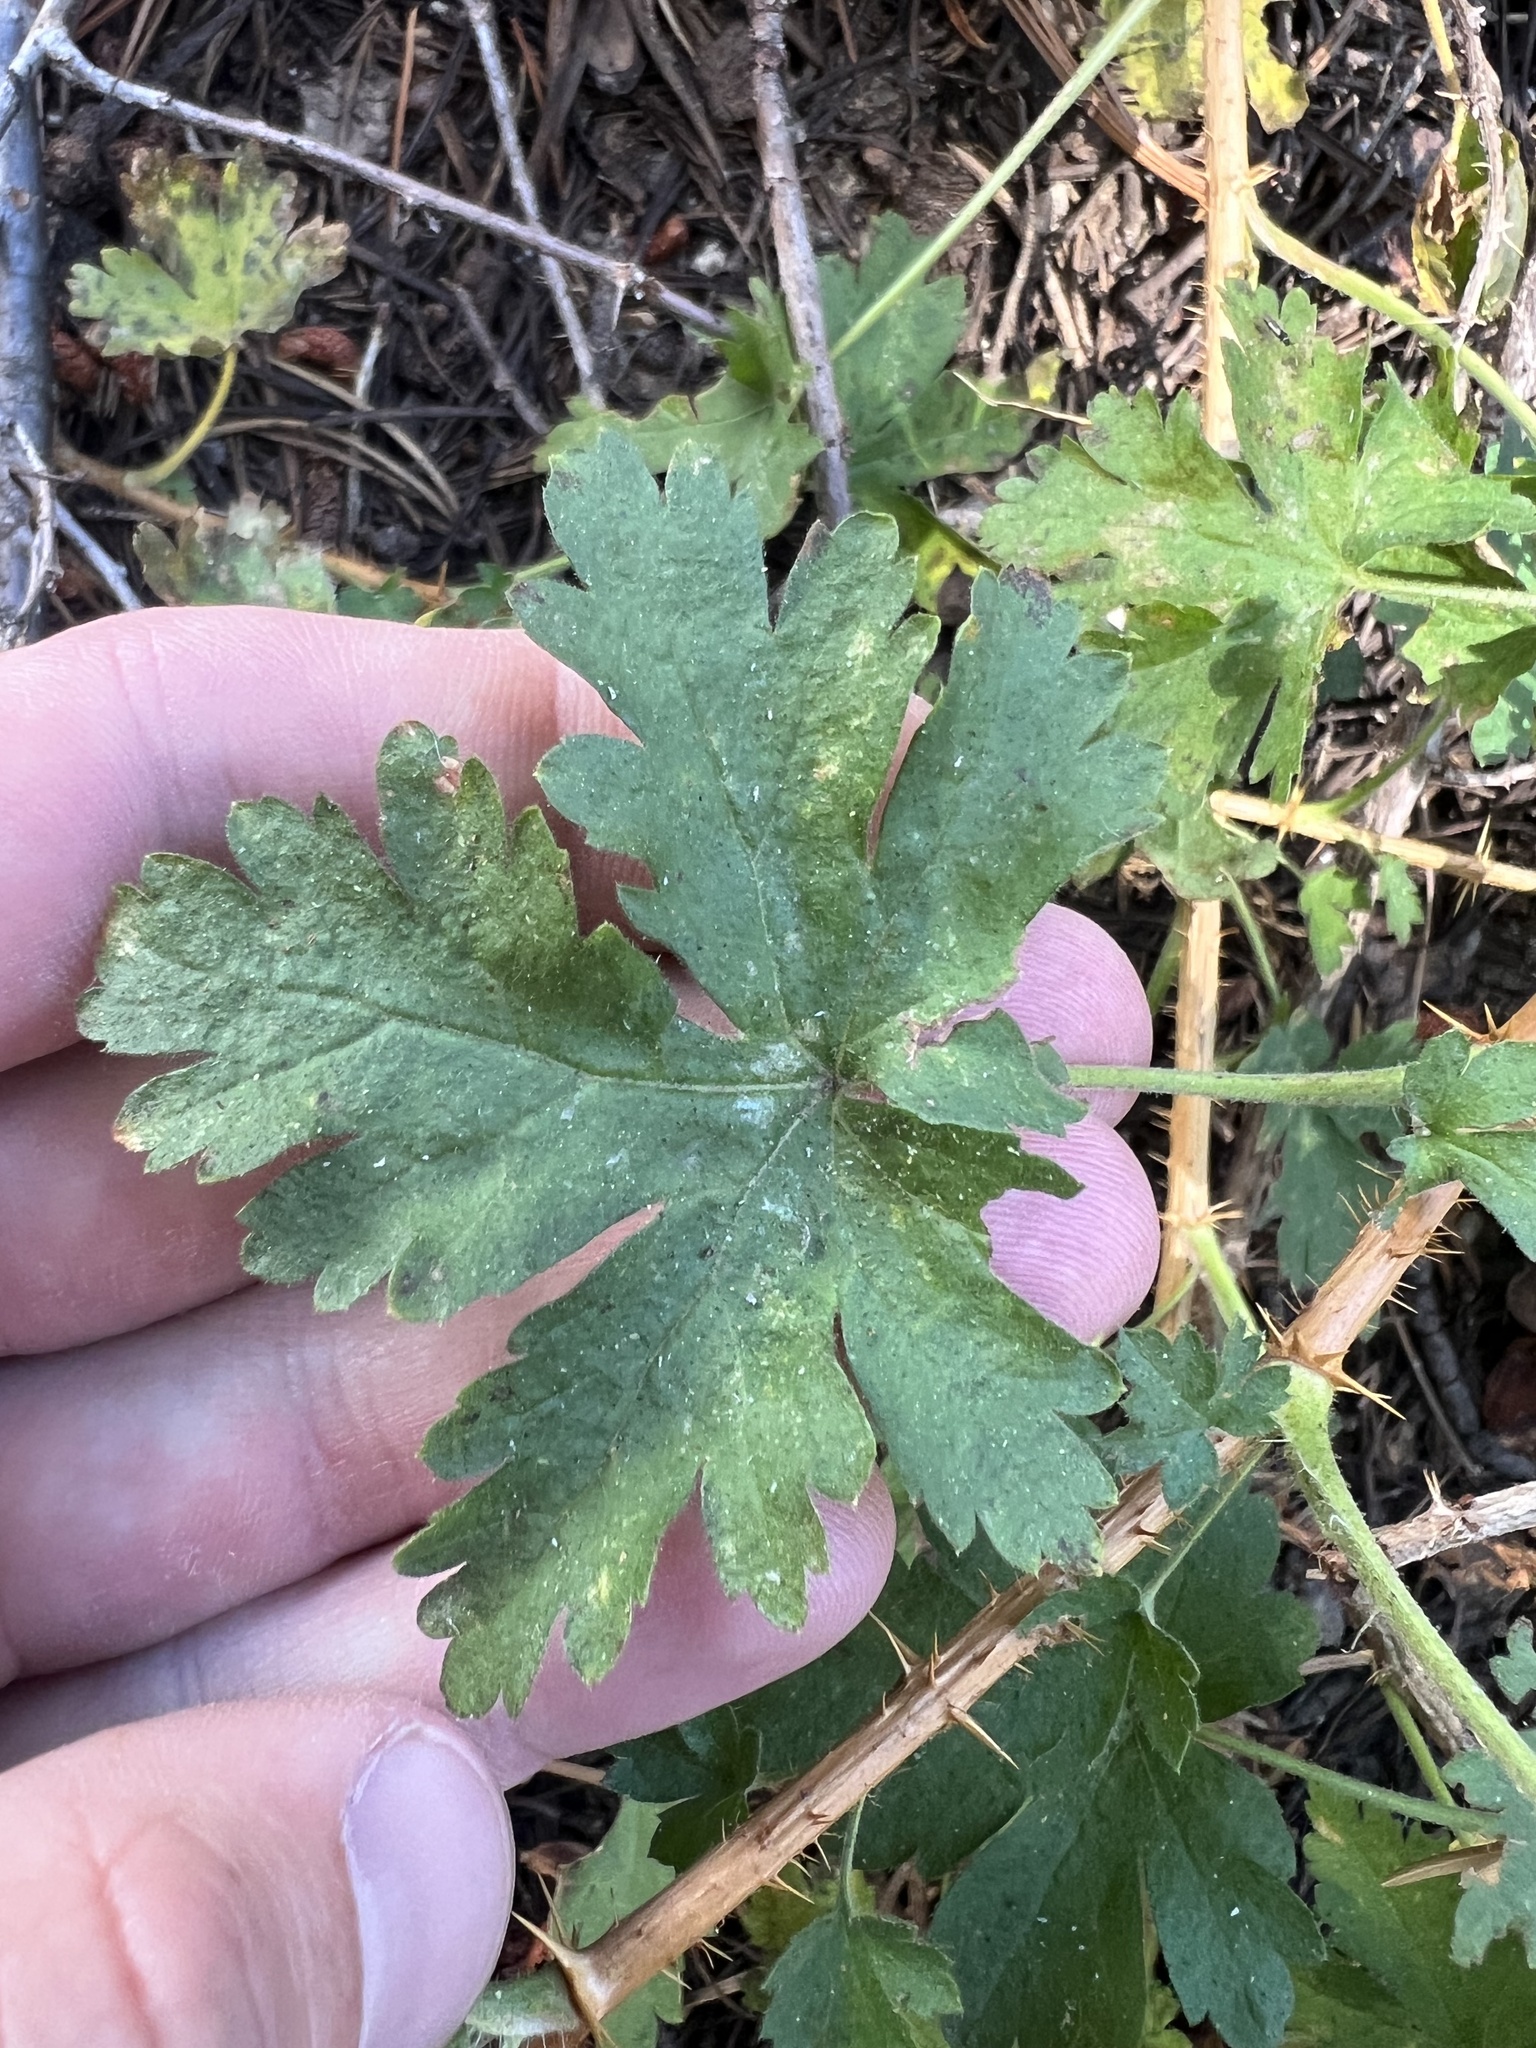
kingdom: Plantae
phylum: Tracheophyta
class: Magnoliopsida
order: Saxifragales
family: Grossulariaceae
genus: Ribes
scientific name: Ribes montigenum
